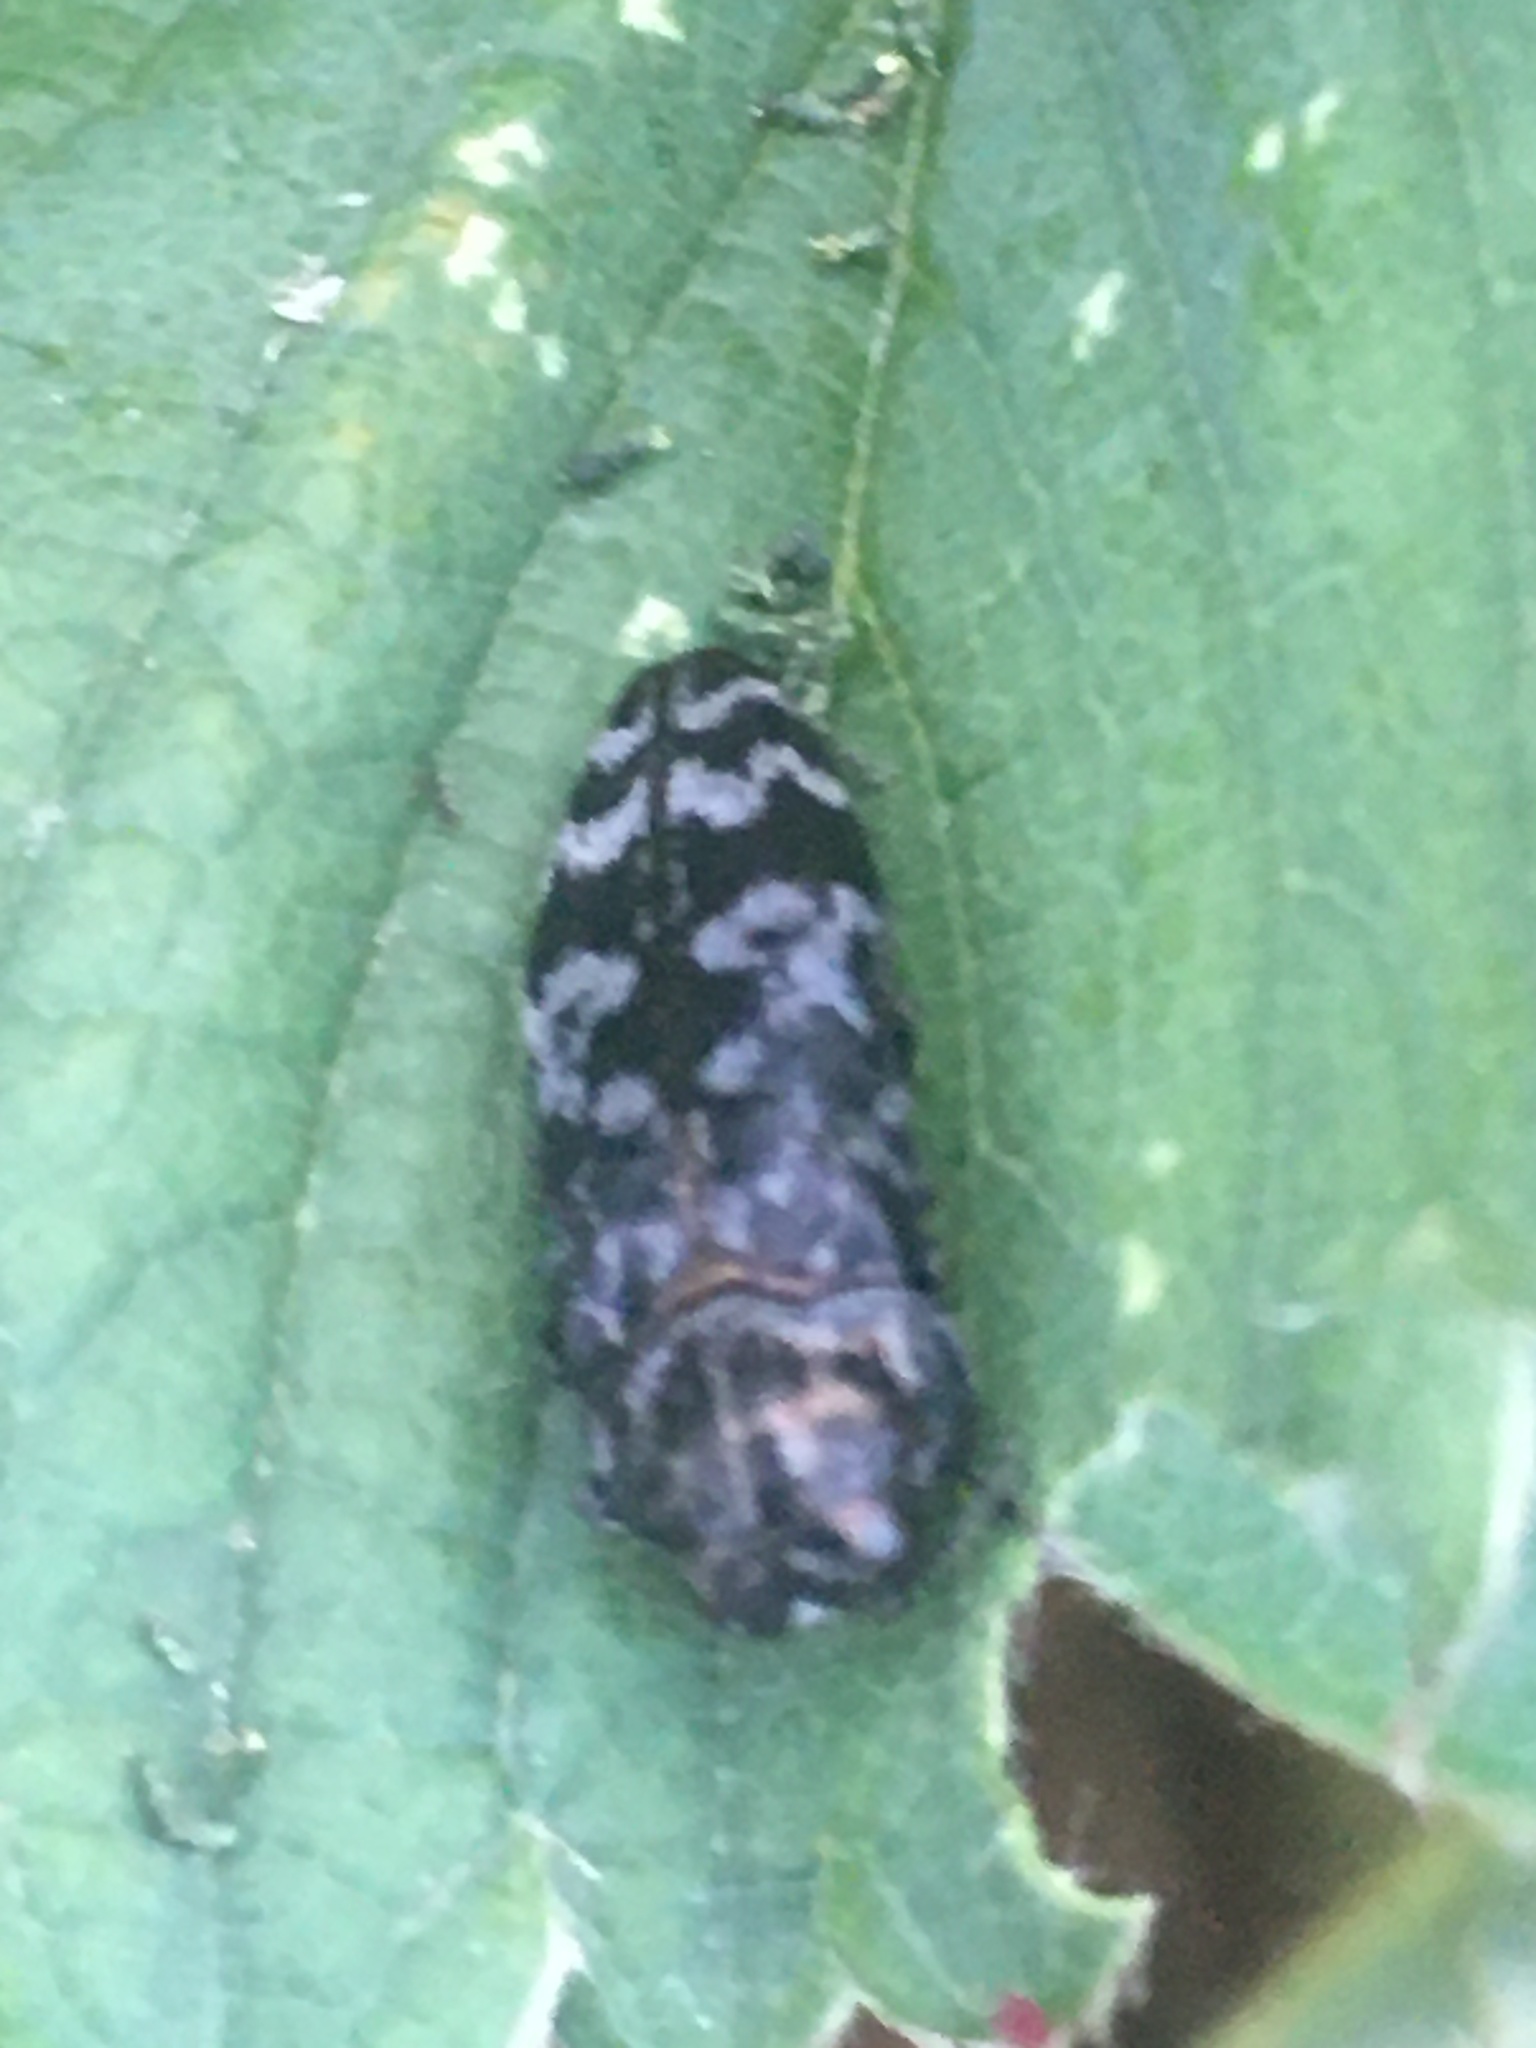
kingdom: Animalia
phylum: Arthropoda
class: Insecta
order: Coleoptera
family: Buprestidae
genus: Coraebus
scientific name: Coraebus rubi
